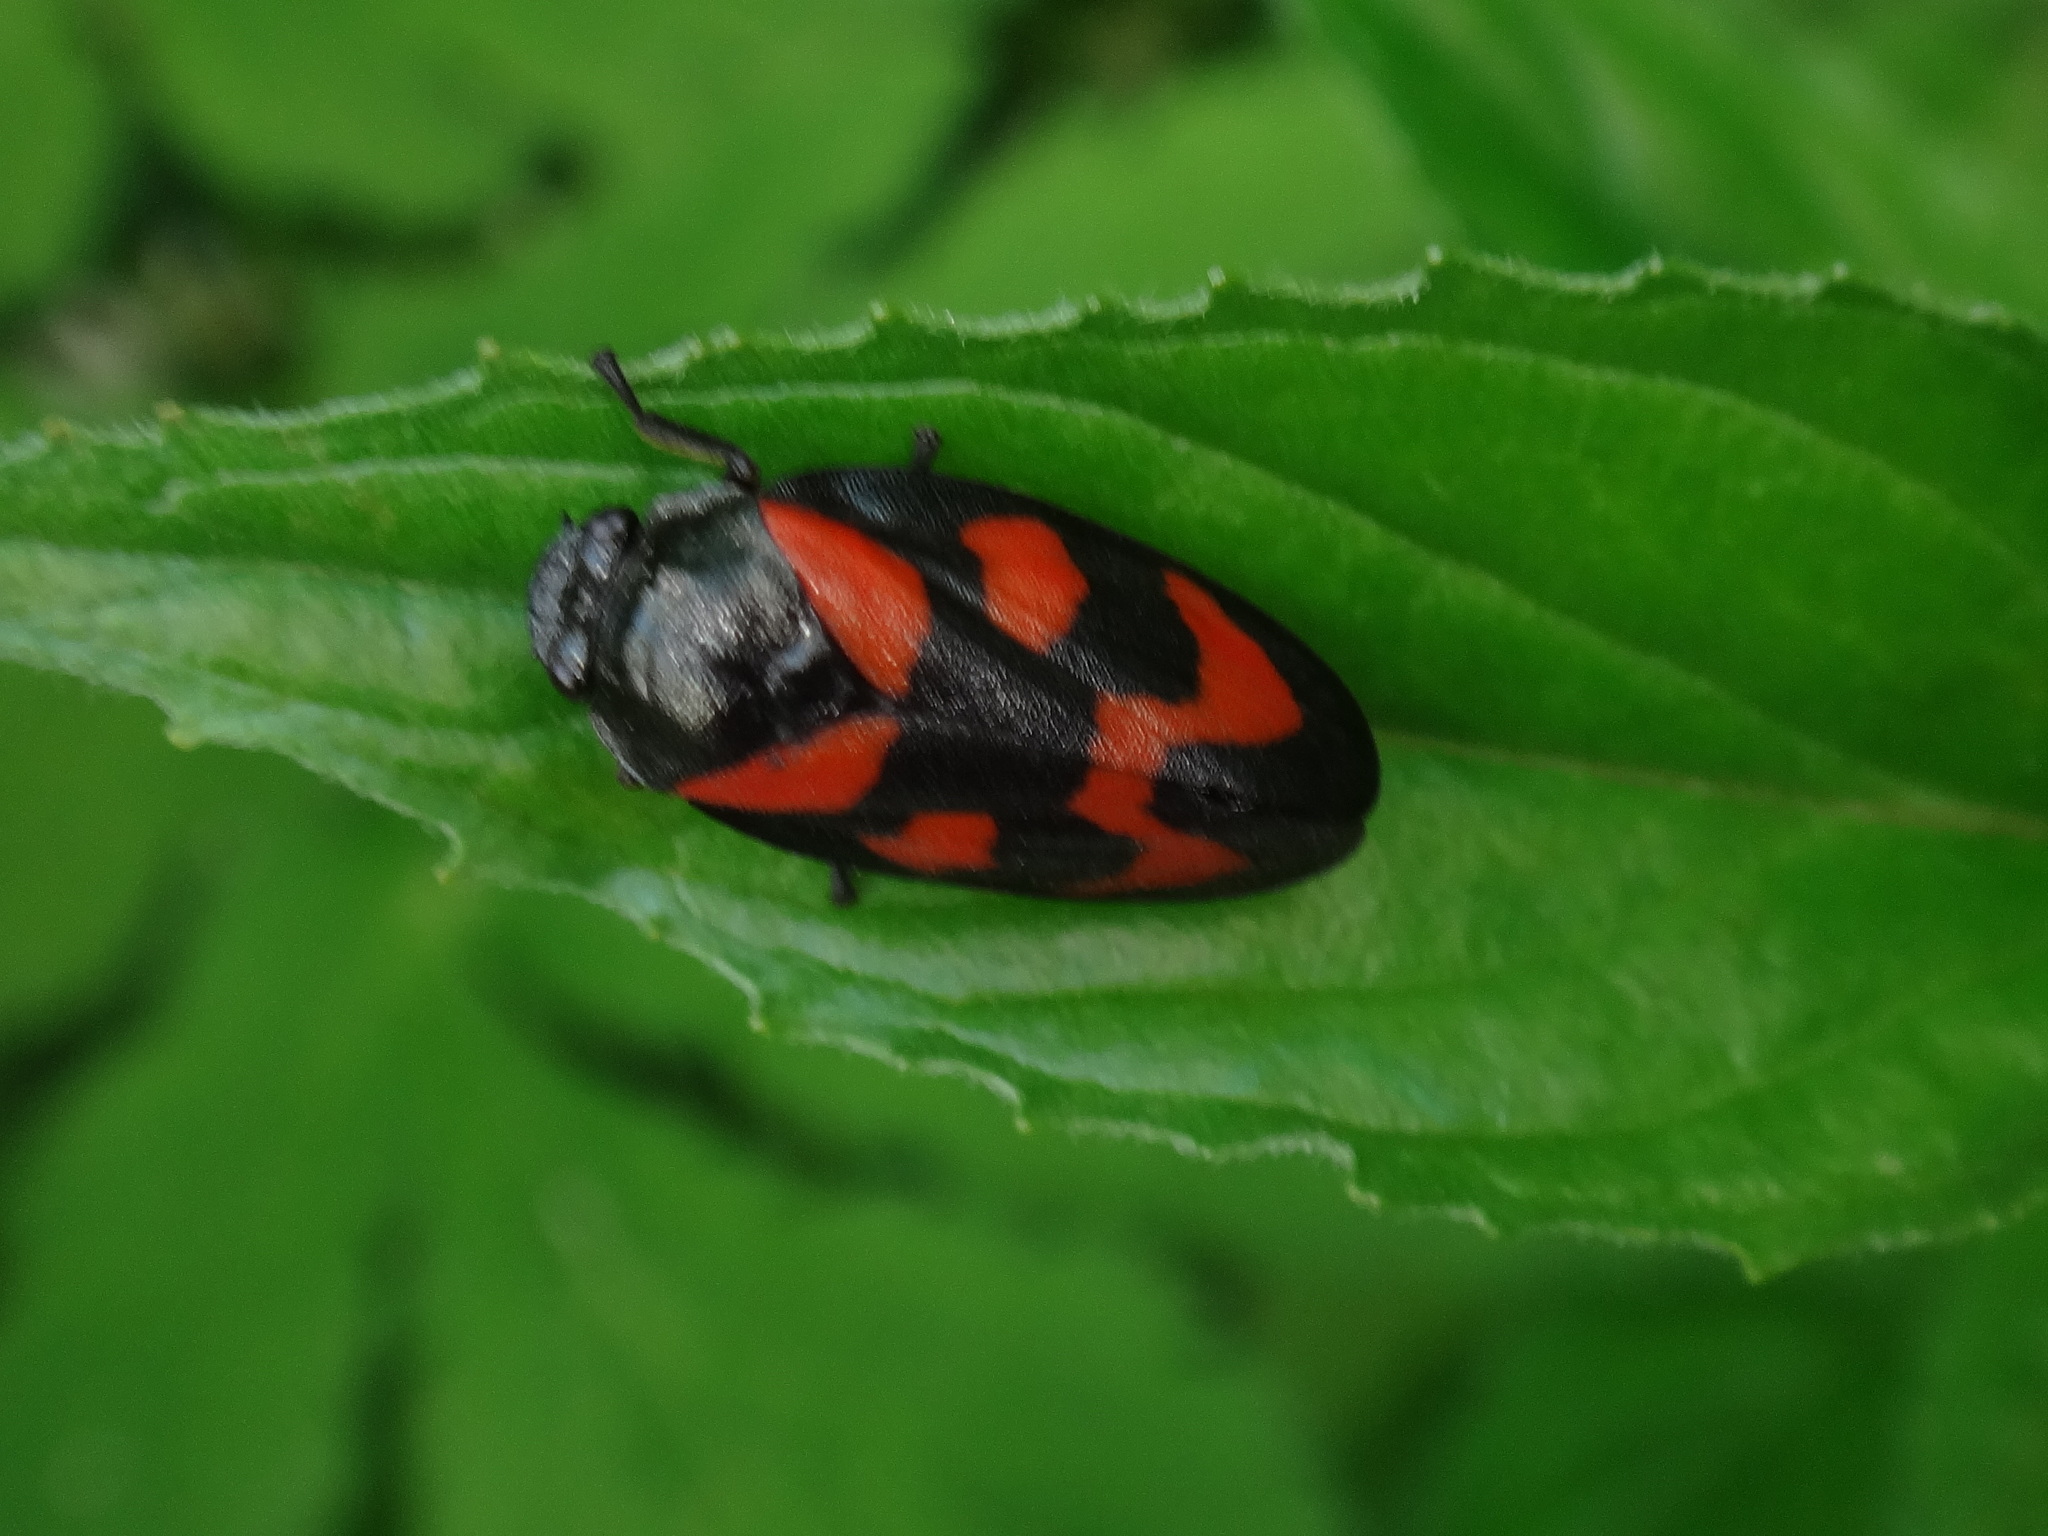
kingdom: Animalia
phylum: Arthropoda
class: Insecta
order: Hemiptera
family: Cercopidae
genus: Cercopis
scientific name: Cercopis vulnerata
